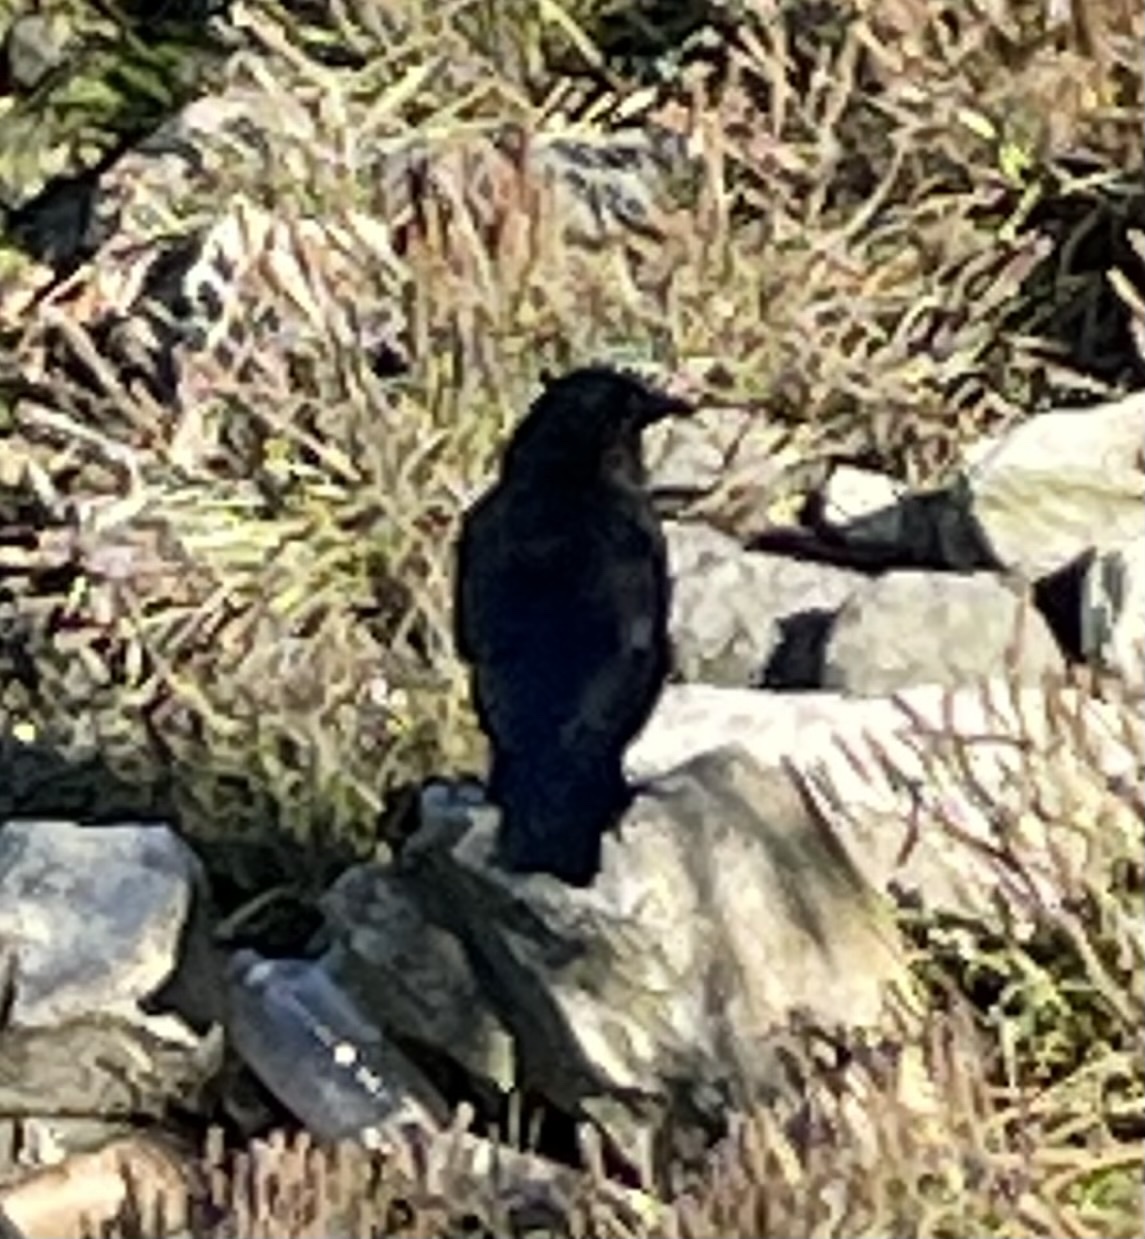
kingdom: Animalia
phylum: Chordata
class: Aves
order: Passeriformes
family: Corvidae
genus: Corvus
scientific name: Corvus brachyrhynchos
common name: American crow
